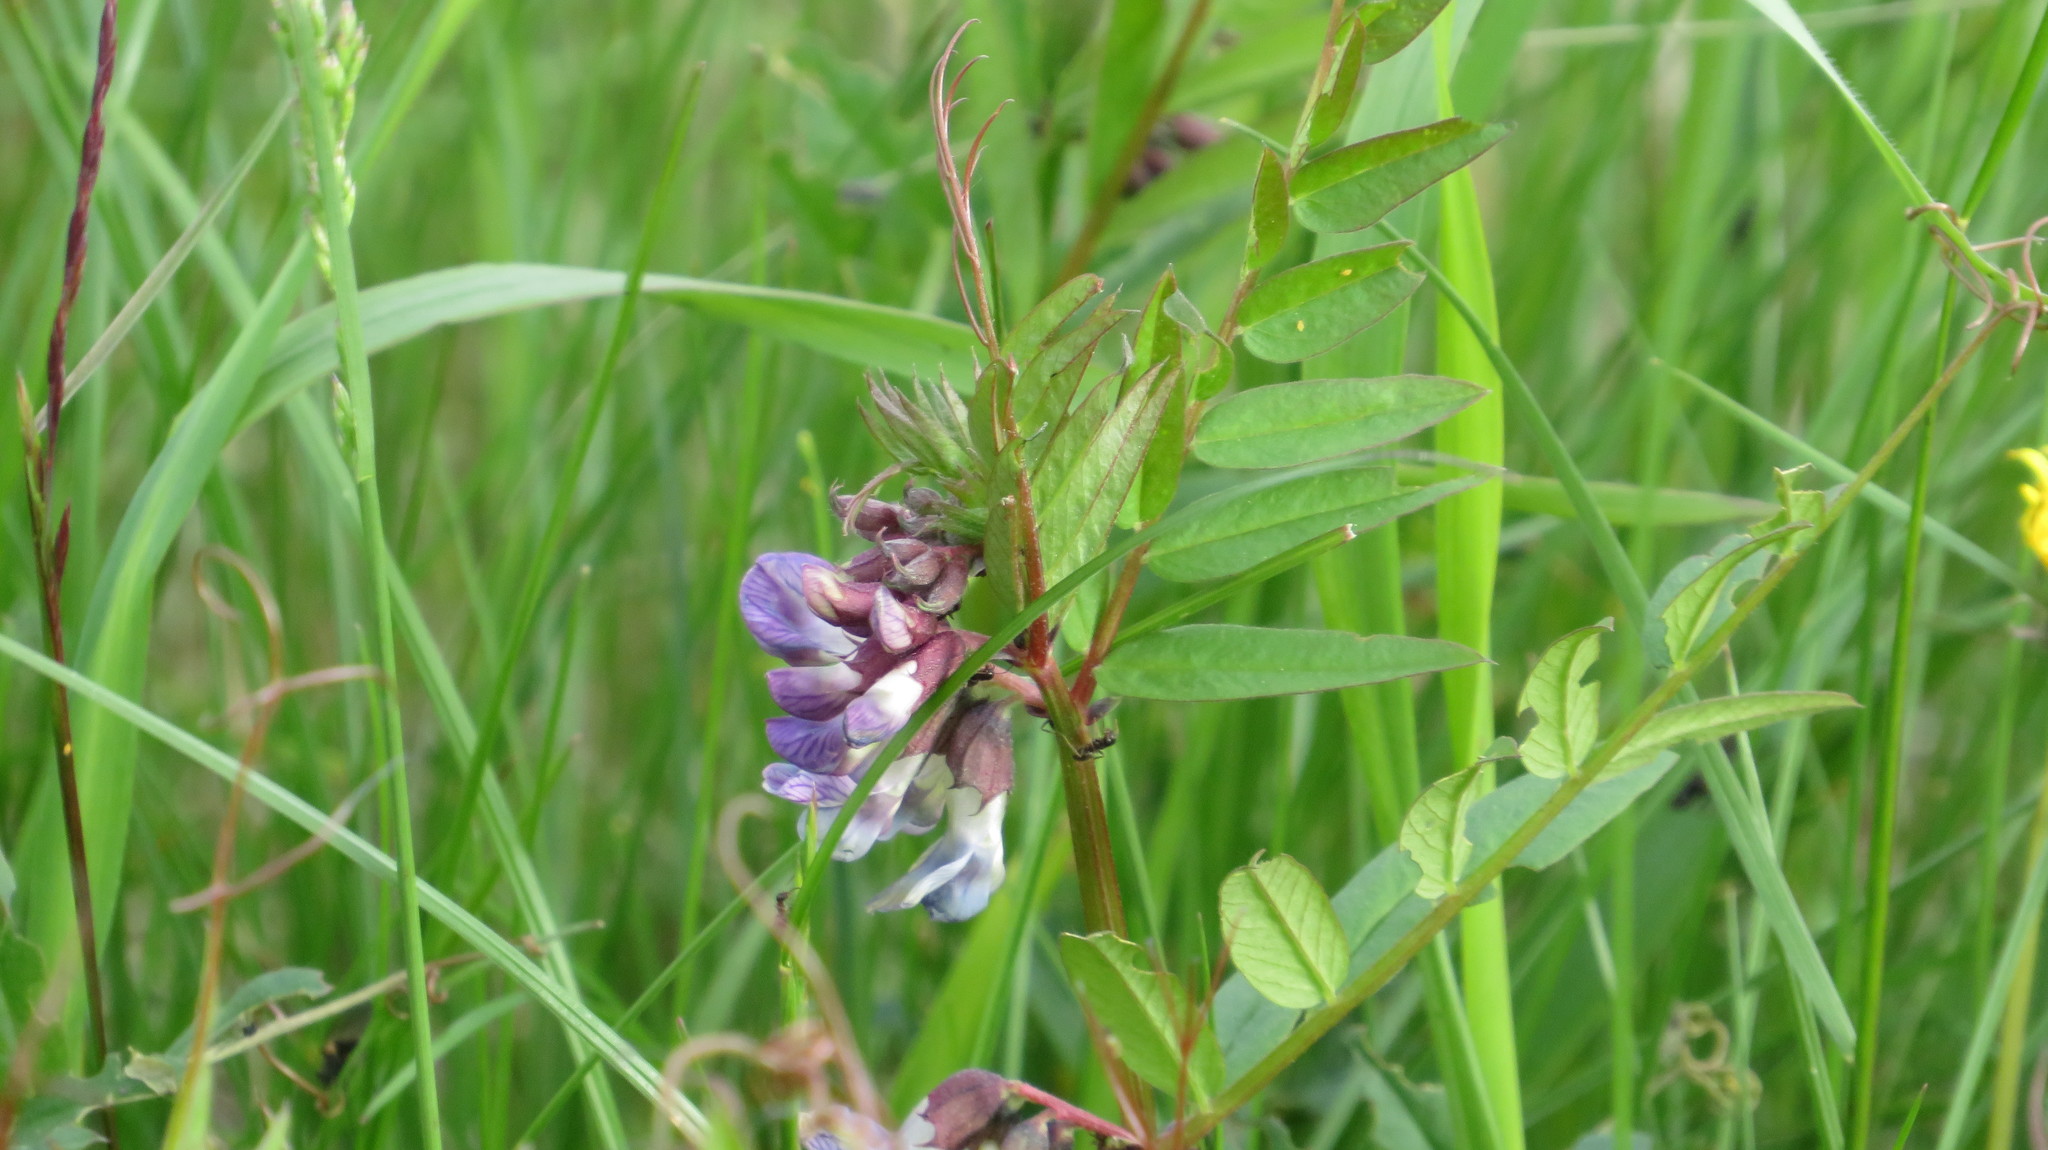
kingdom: Plantae
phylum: Tracheophyta
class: Magnoliopsida
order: Fabales
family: Fabaceae
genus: Vicia
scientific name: Vicia sepium
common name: Bush vetch
